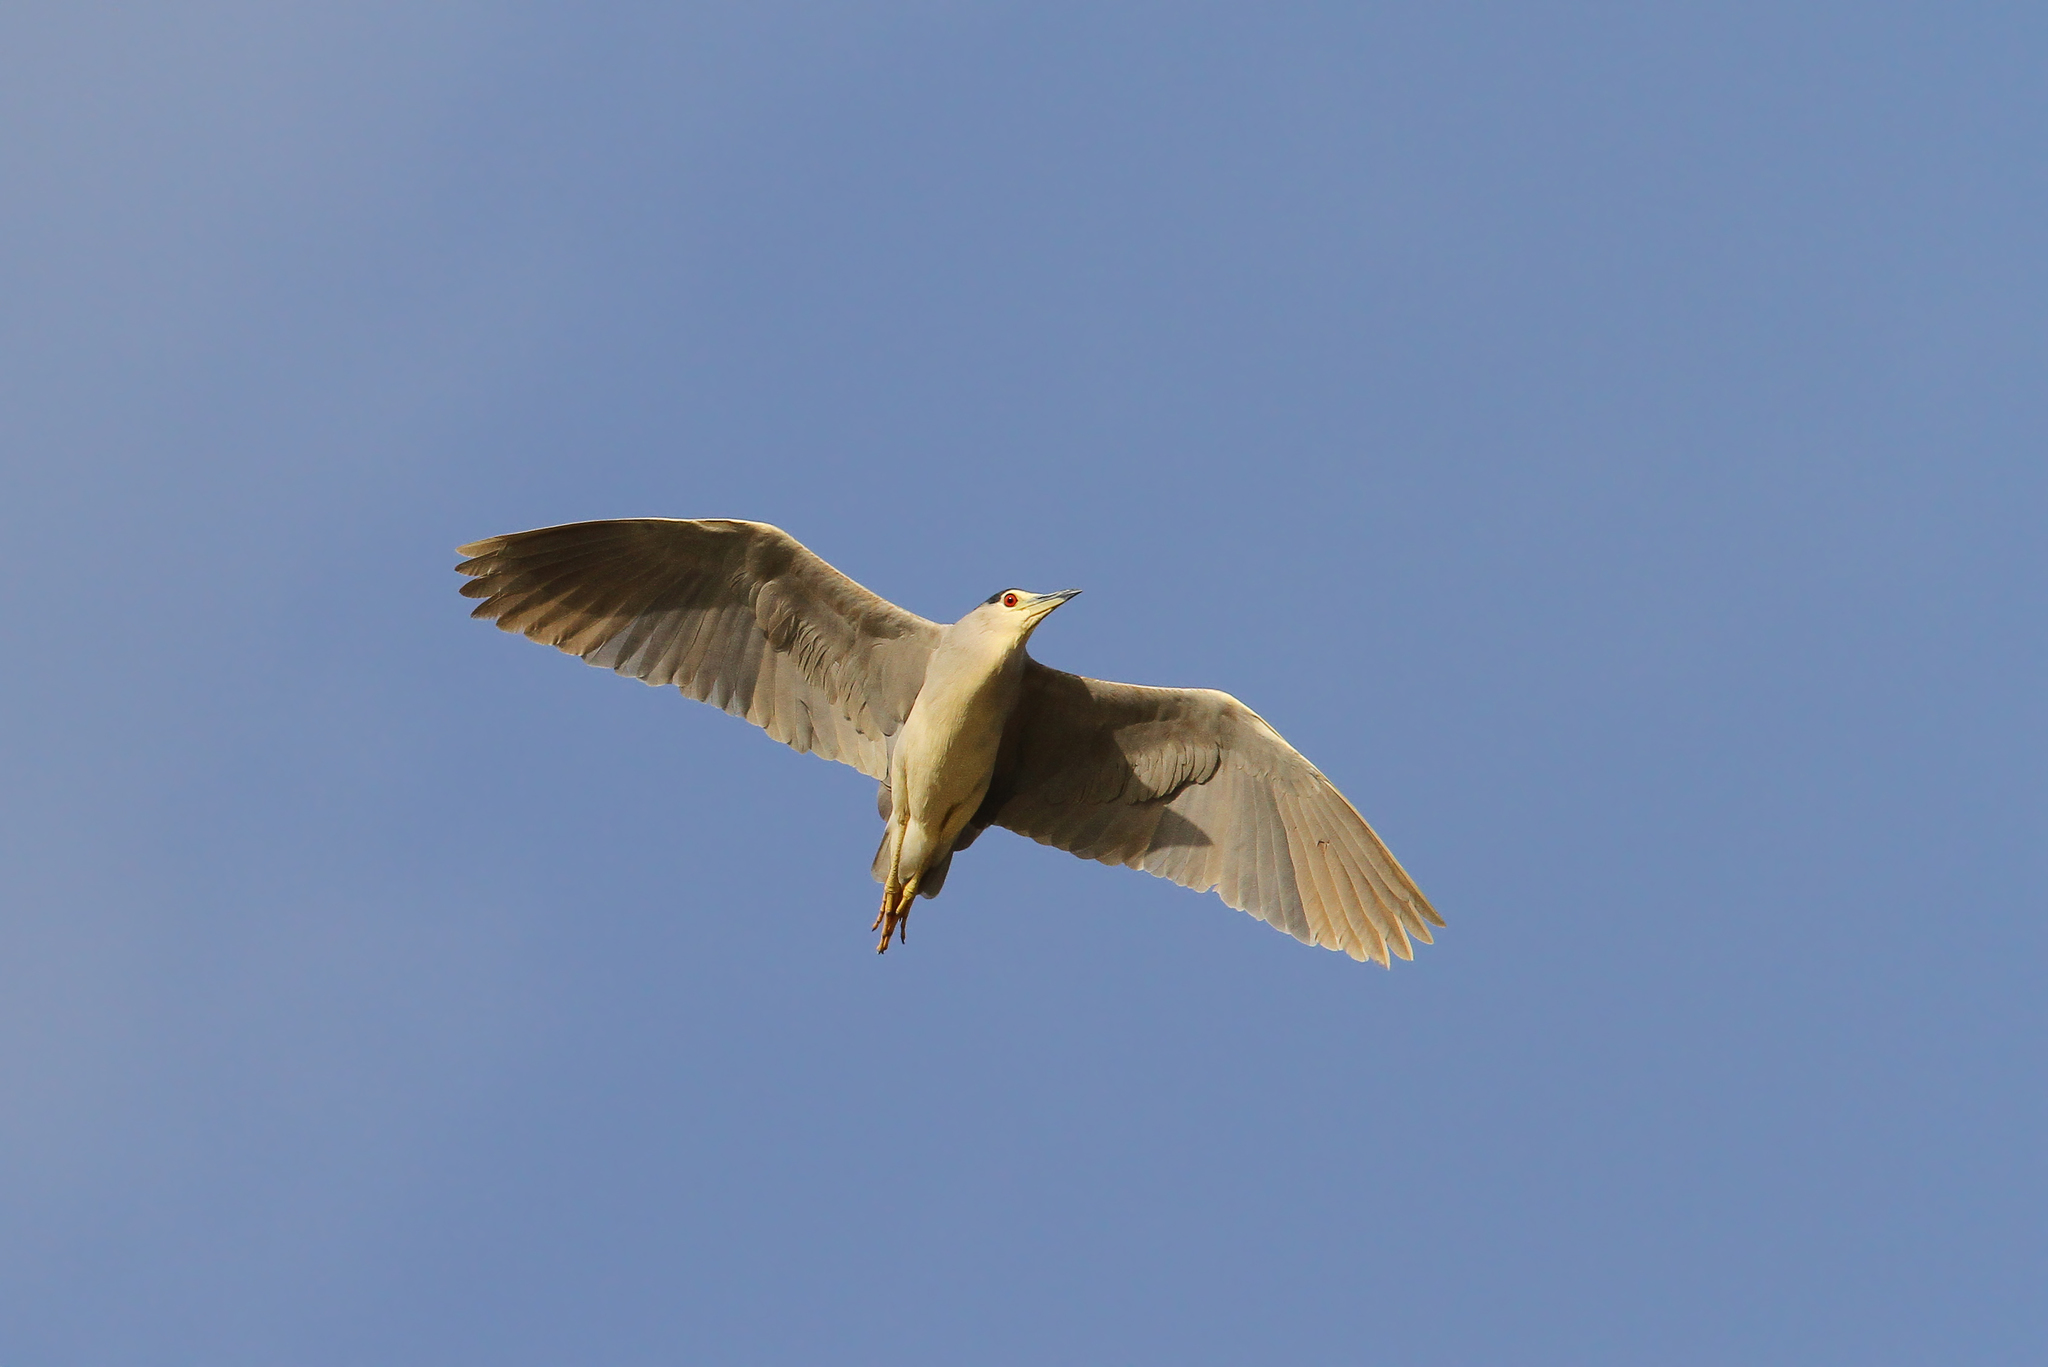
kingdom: Animalia
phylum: Chordata
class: Aves
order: Pelecaniformes
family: Ardeidae
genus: Nycticorax
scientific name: Nycticorax nycticorax
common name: Black-crowned night heron
